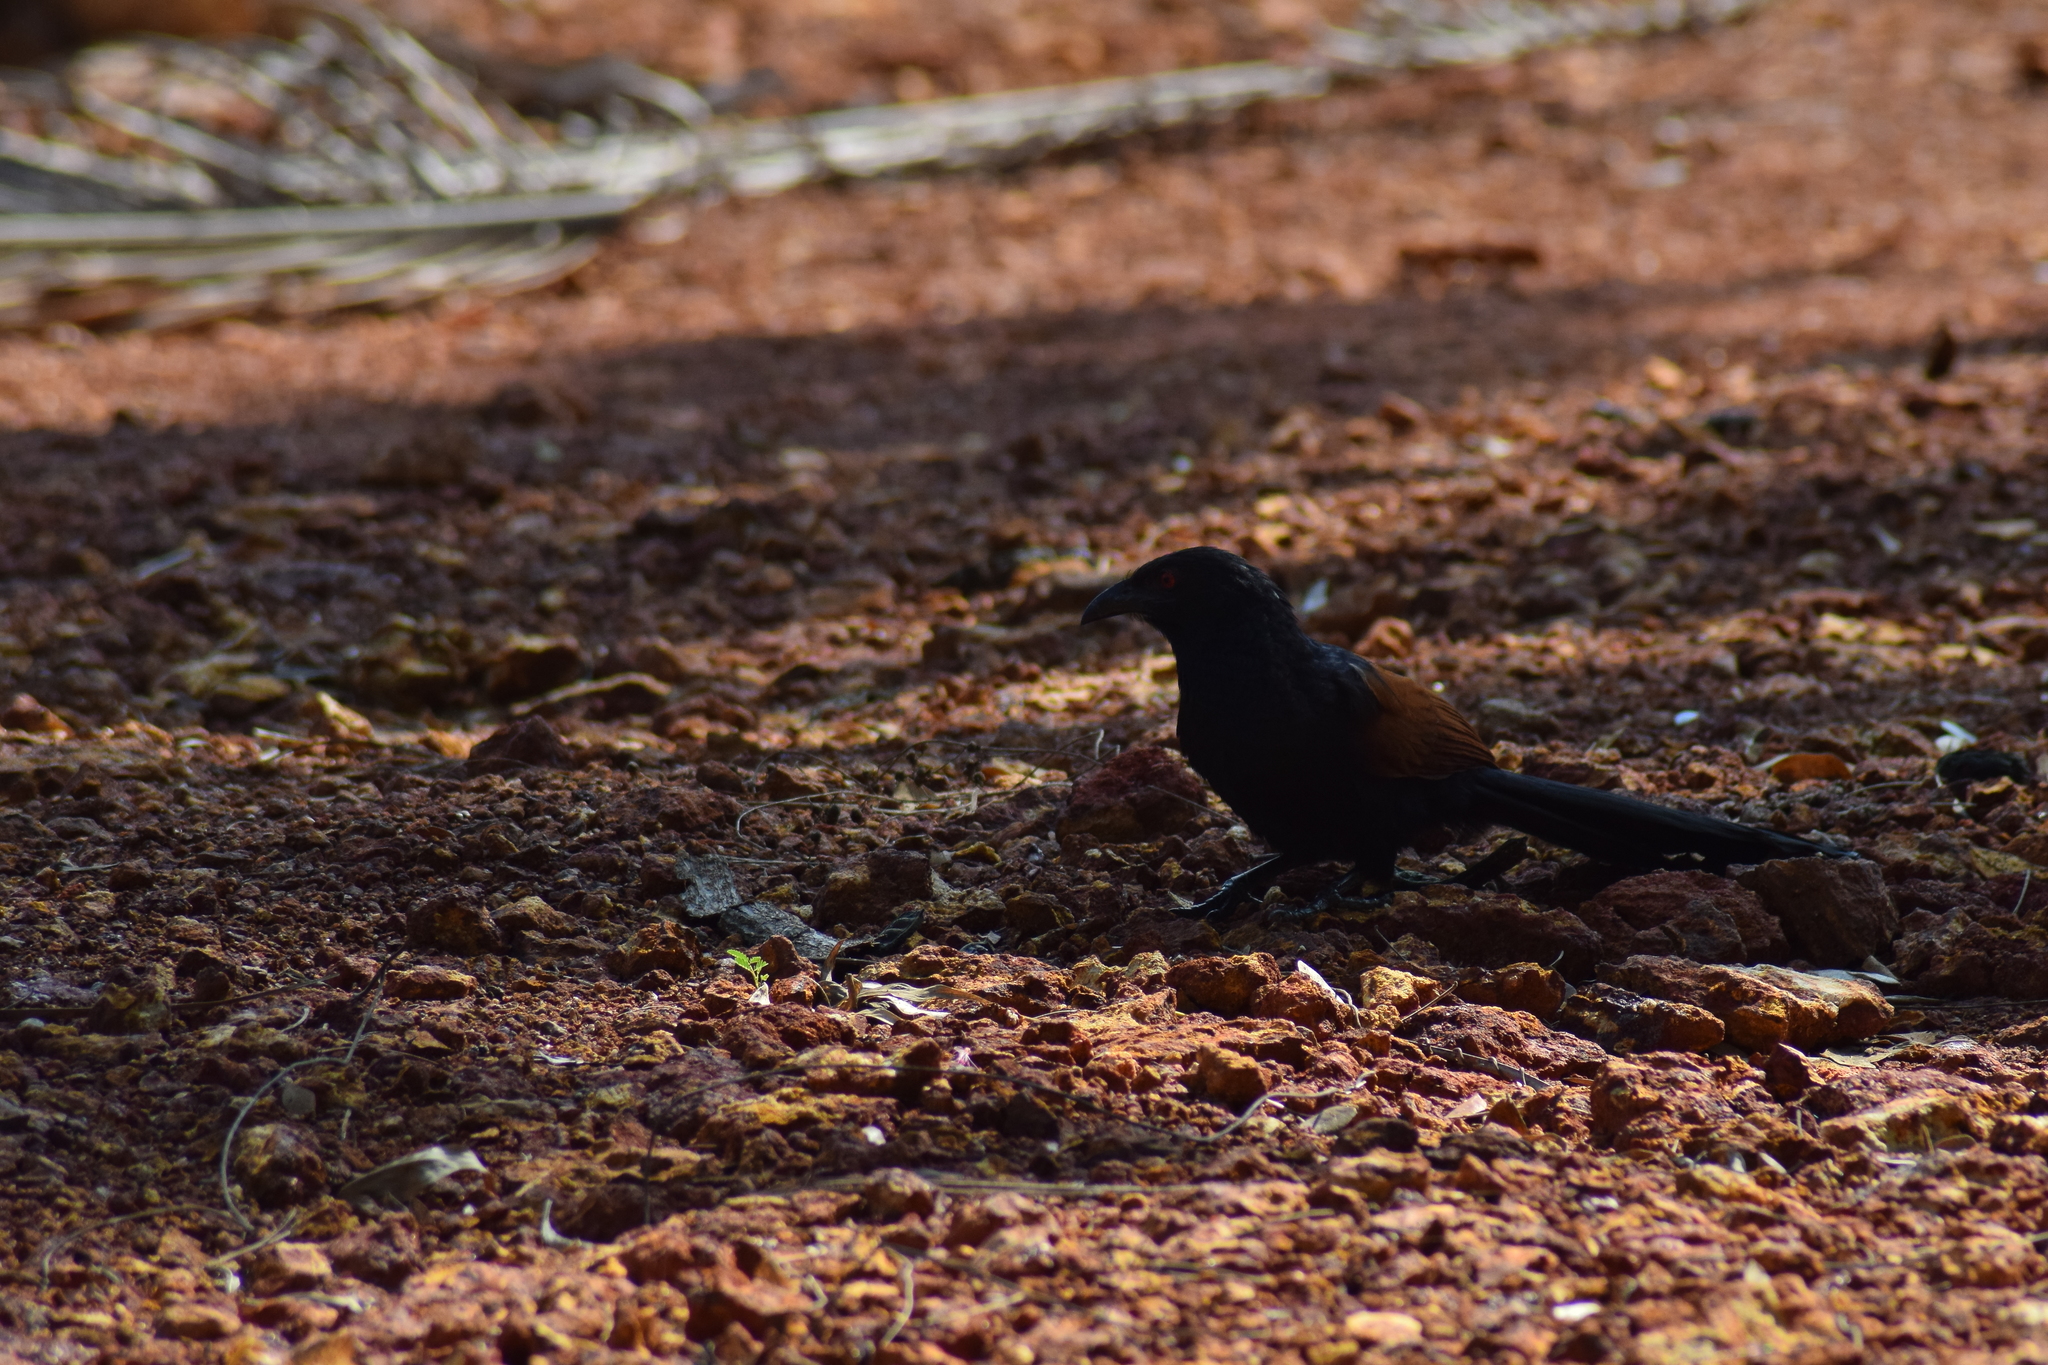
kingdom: Animalia
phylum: Chordata
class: Aves
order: Cuculiformes
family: Cuculidae
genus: Centropus
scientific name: Centropus sinensis
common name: Greater coucal
